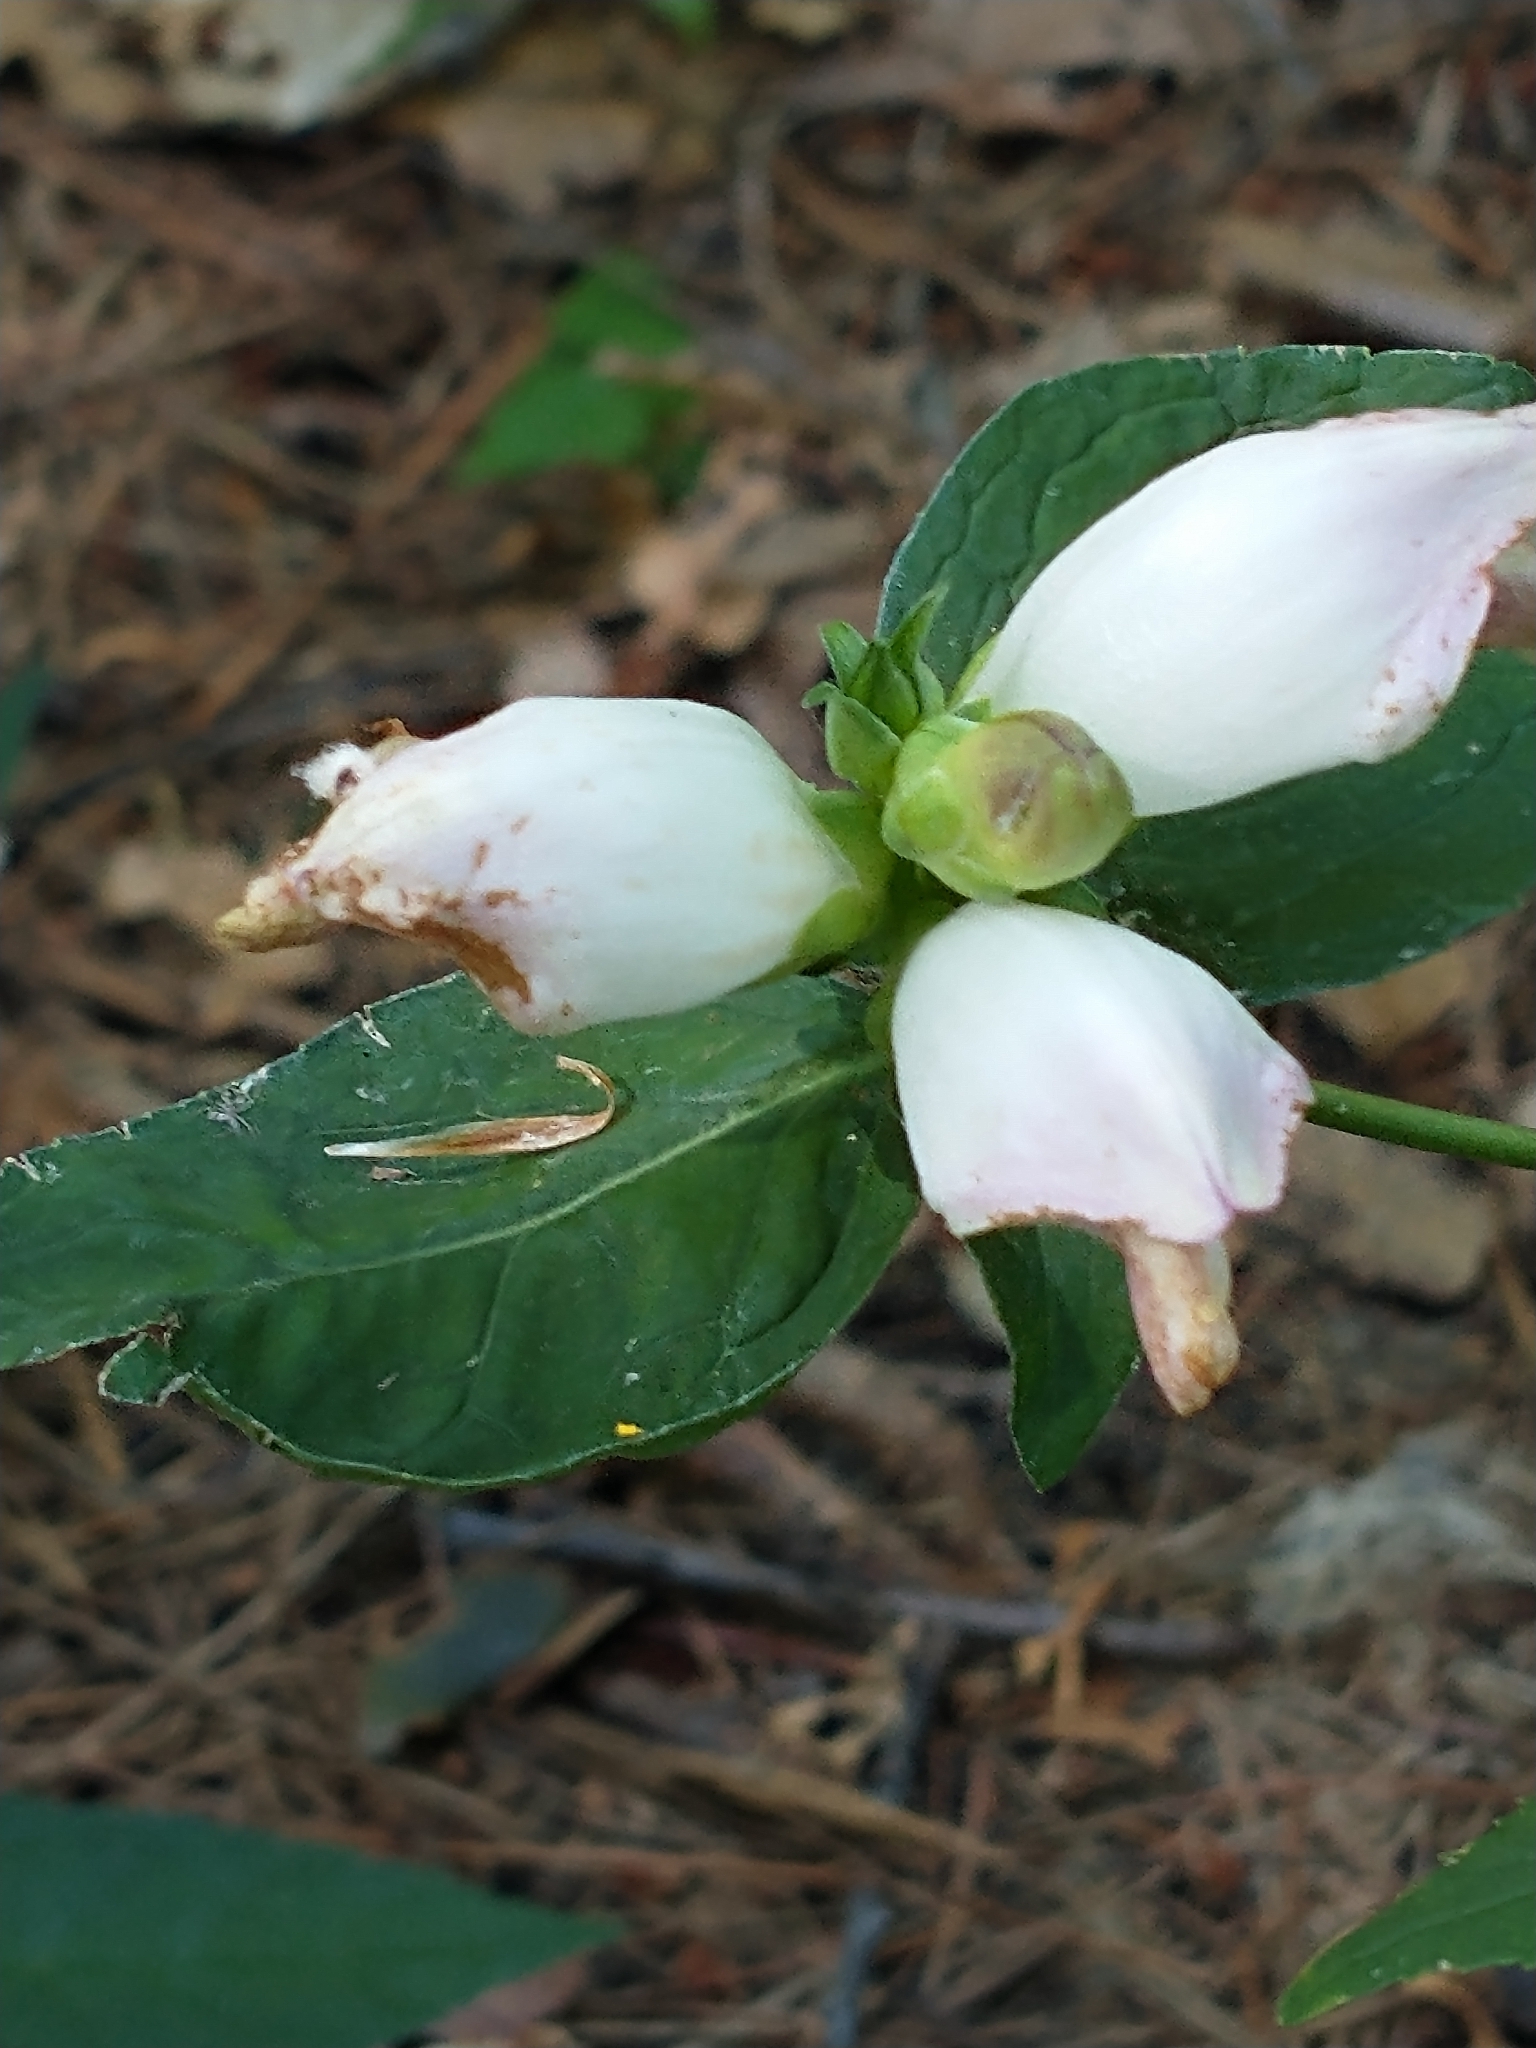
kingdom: Plantae
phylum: Tracheophyta
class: Magnoliopsida
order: Lamiales
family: Plantaginaceae
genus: Chelone
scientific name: Chelone glabra
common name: Snakehead
